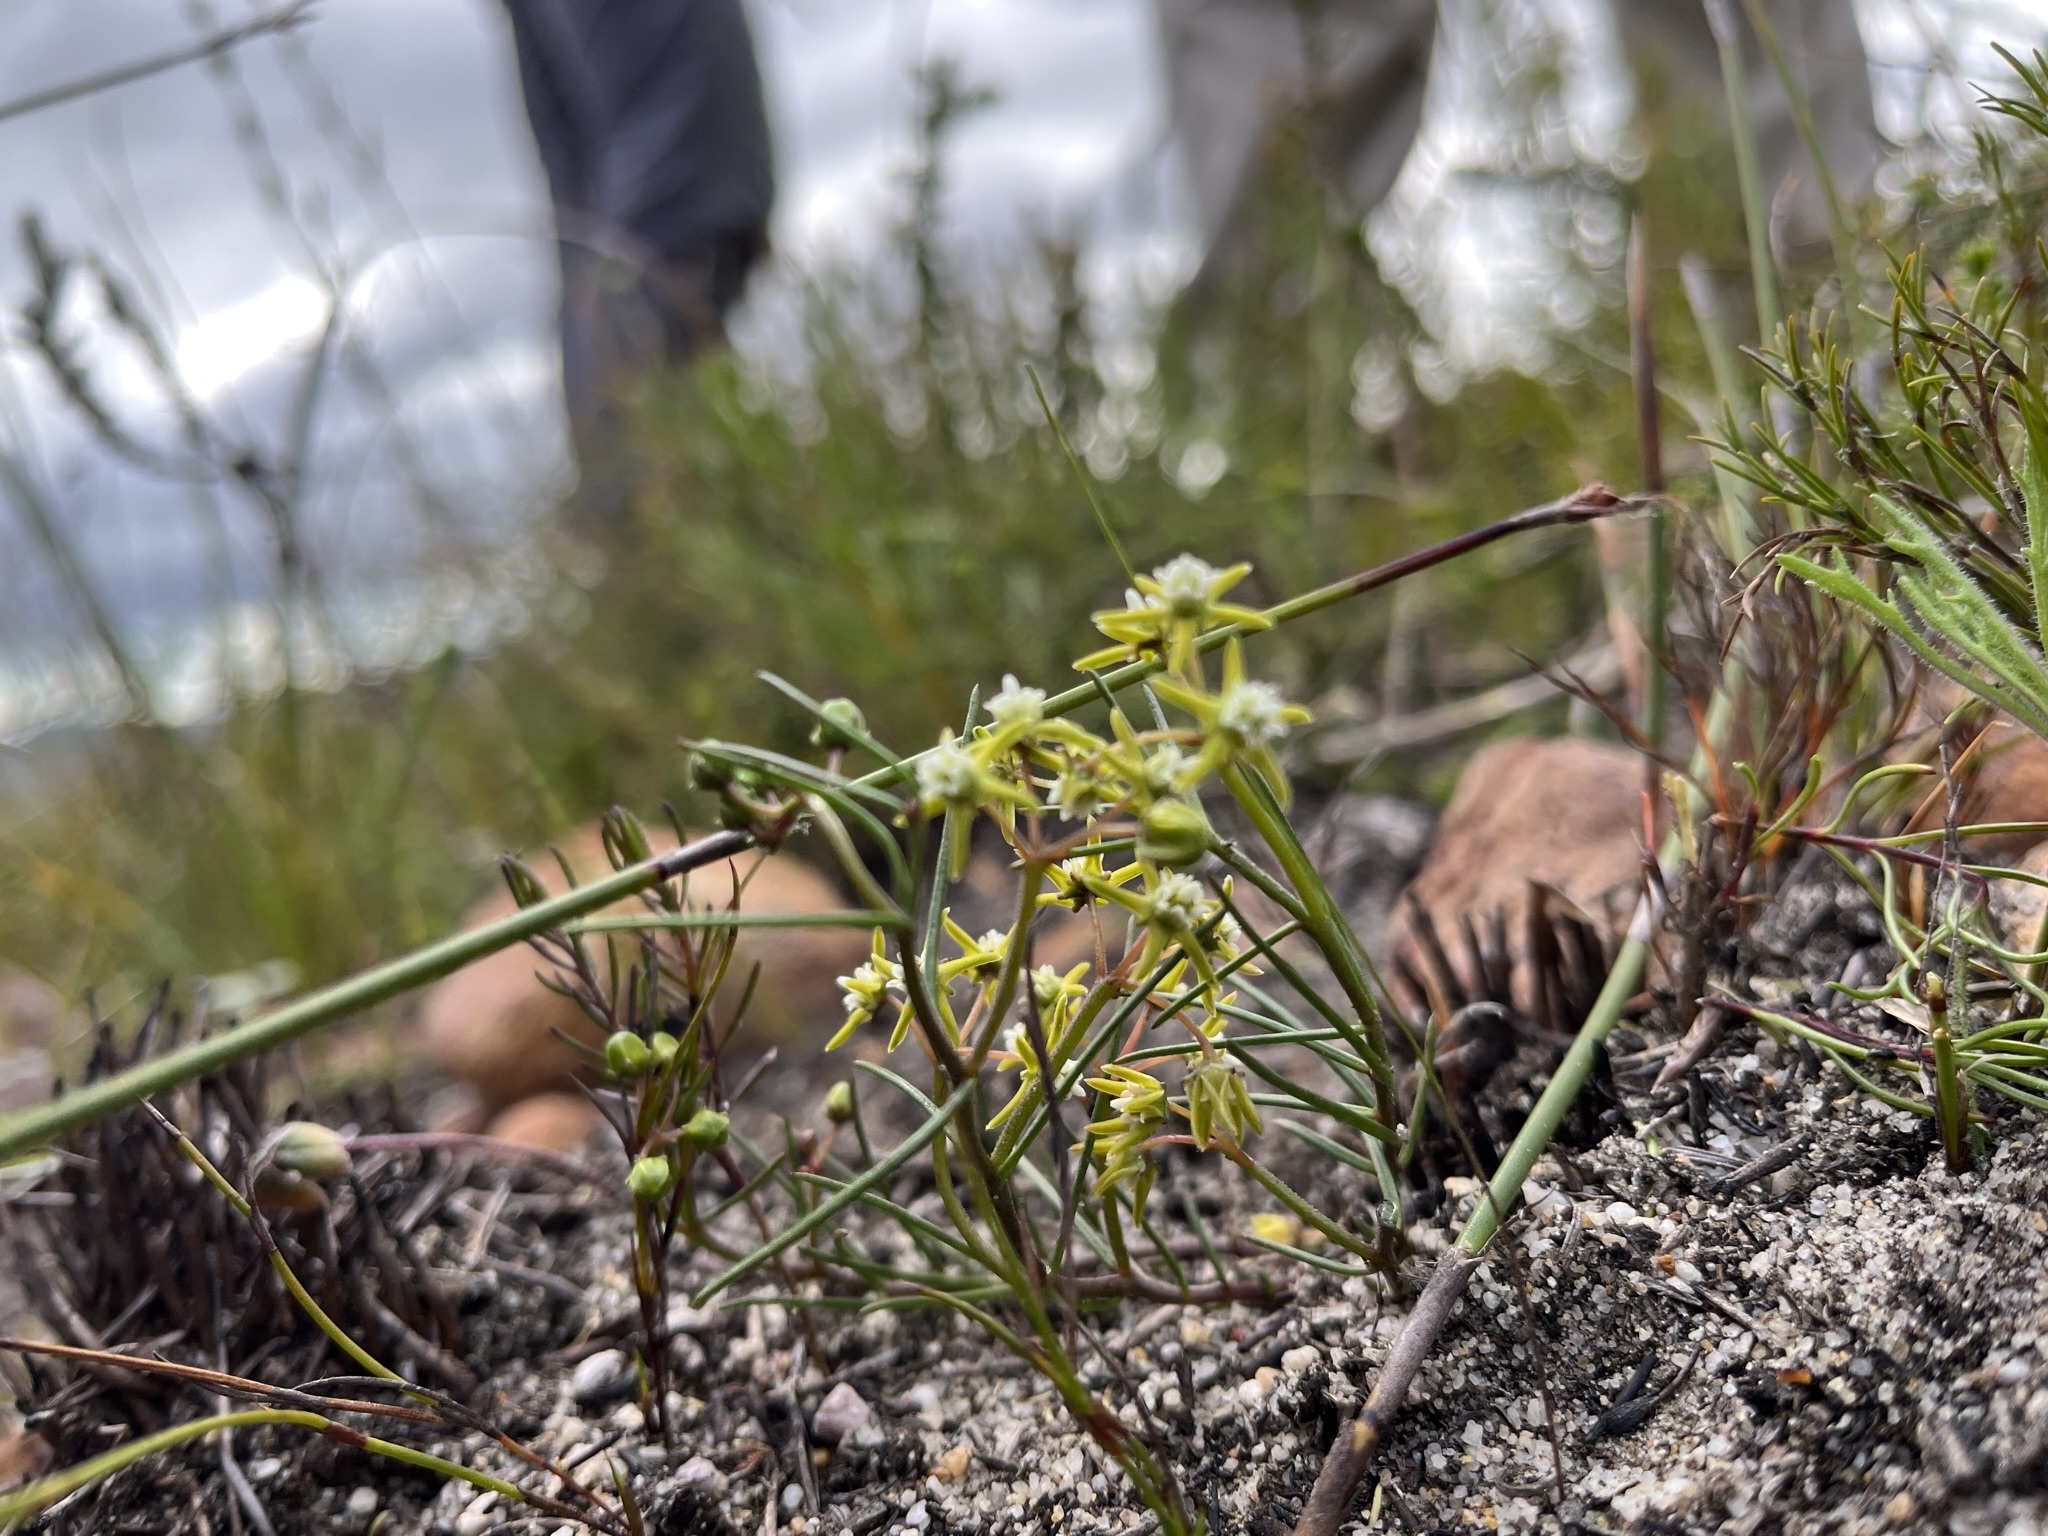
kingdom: Plantae
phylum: Tracheophyta
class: Magnoliopsida
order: Gentianales
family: Apocynaceae
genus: Eustegia
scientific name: Eustegia minuta
